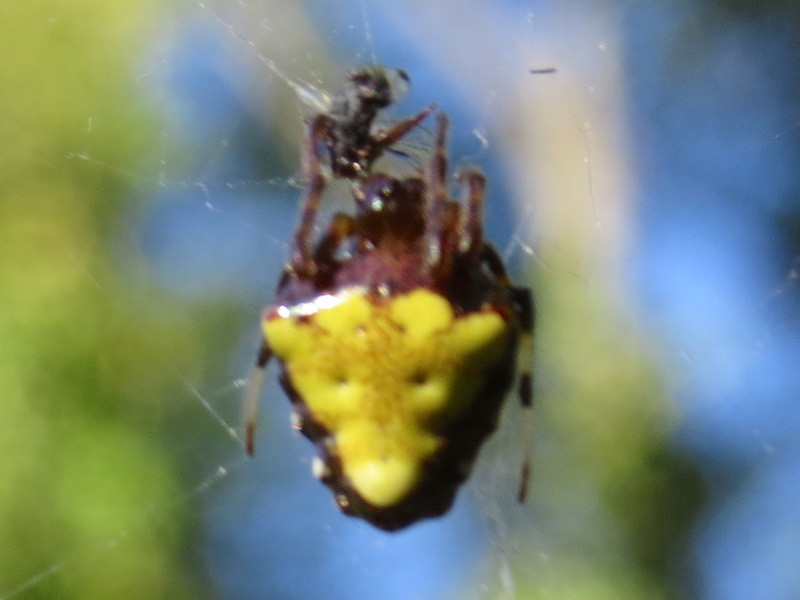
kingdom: Animalia
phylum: Arthropoda
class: Arachnida
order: Araneae
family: Araneidae
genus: Verrucosa
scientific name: Verrucosa arenata
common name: Orb weavers
